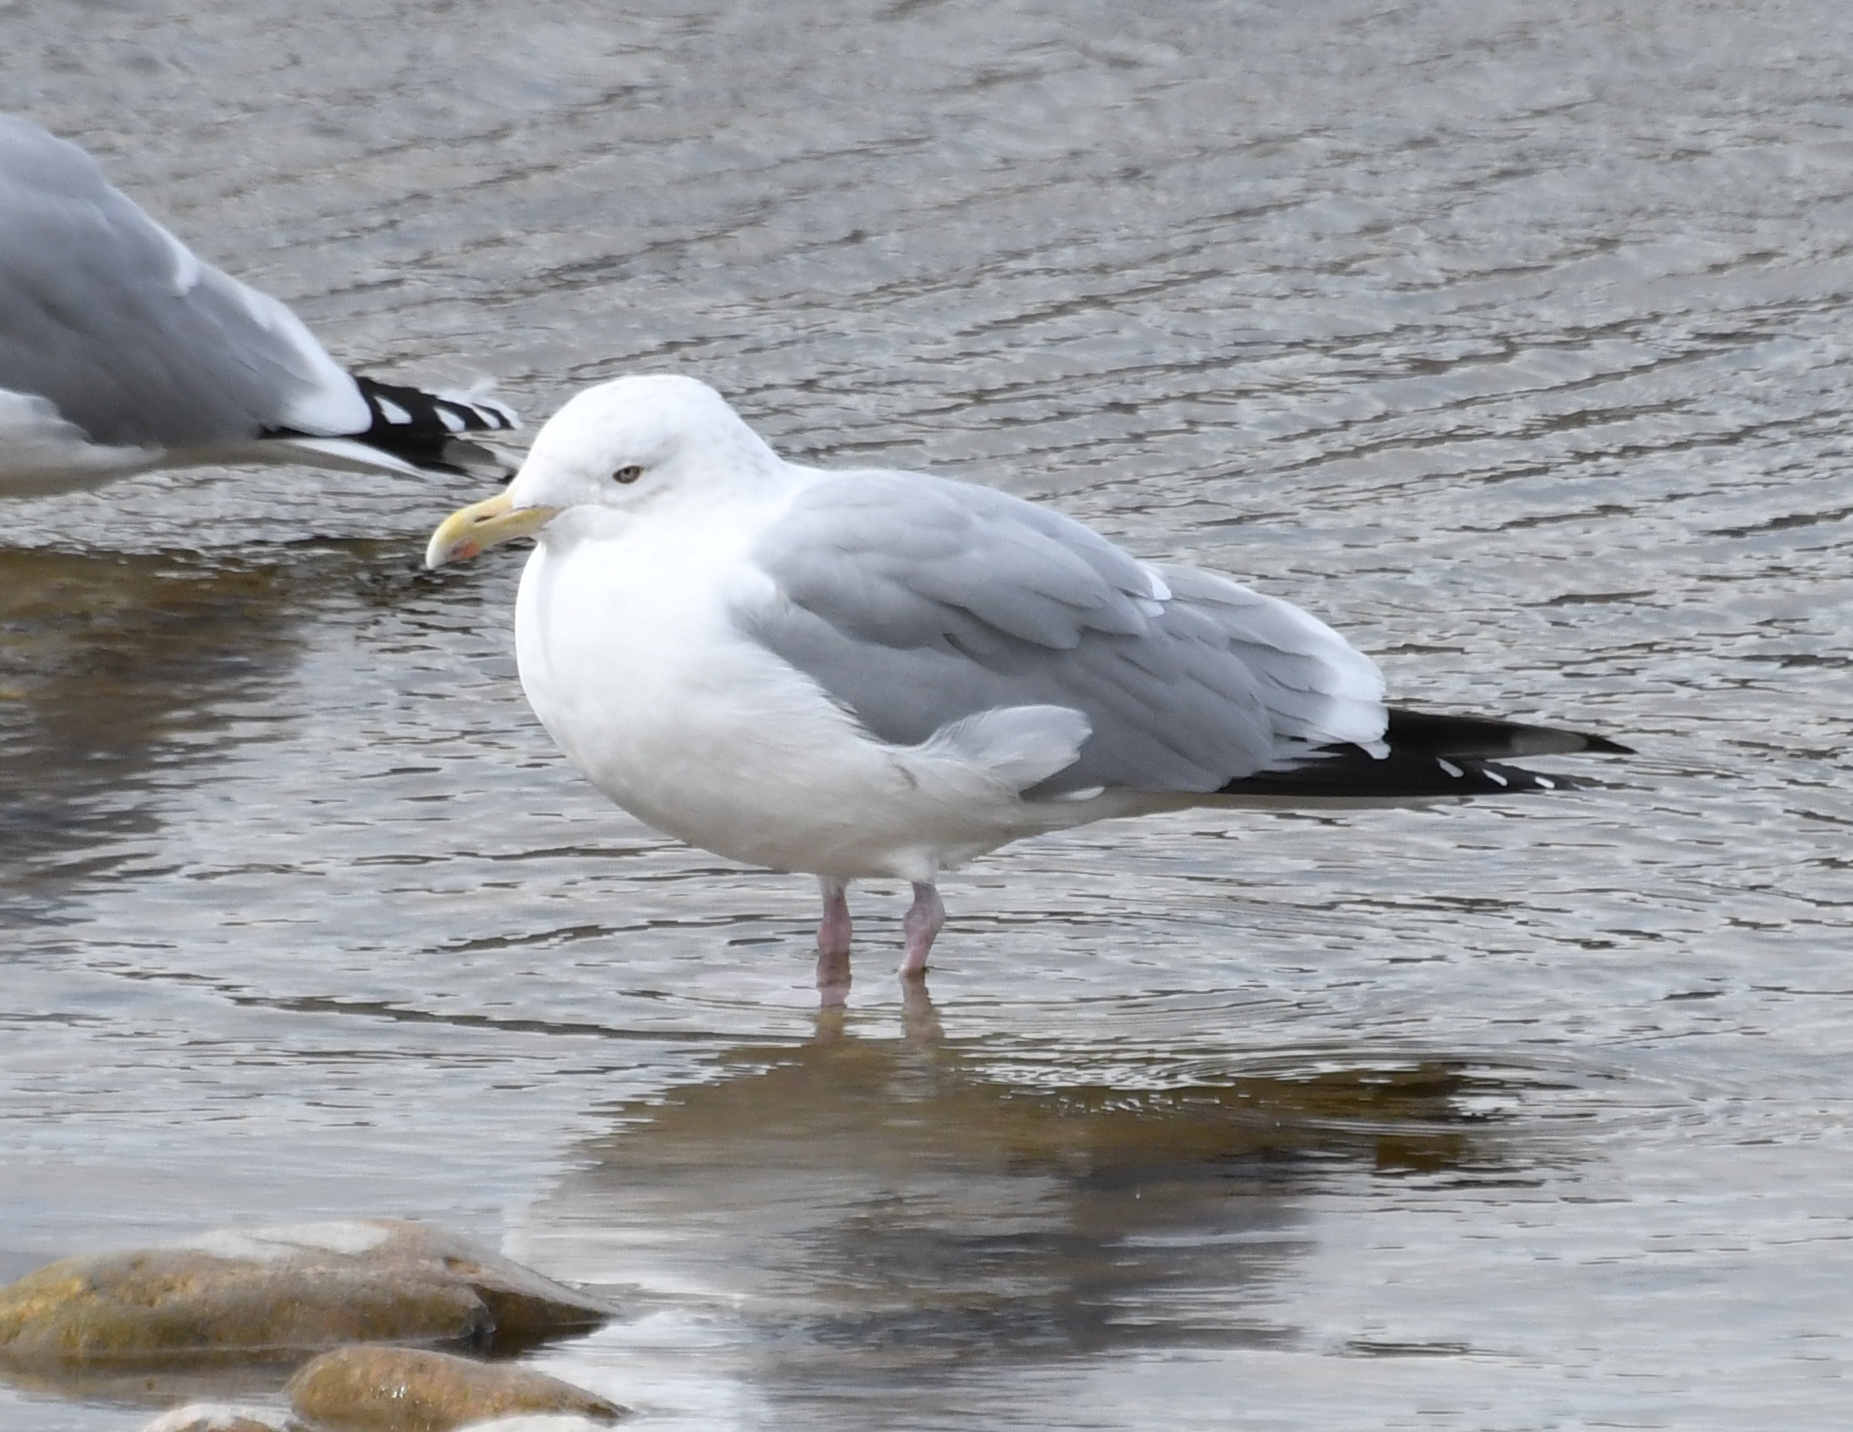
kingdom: Animalia
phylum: Chordata
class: Aves
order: Charadriiformes
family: Laridae
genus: Larus
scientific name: Larus argentatus
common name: Herring gull
